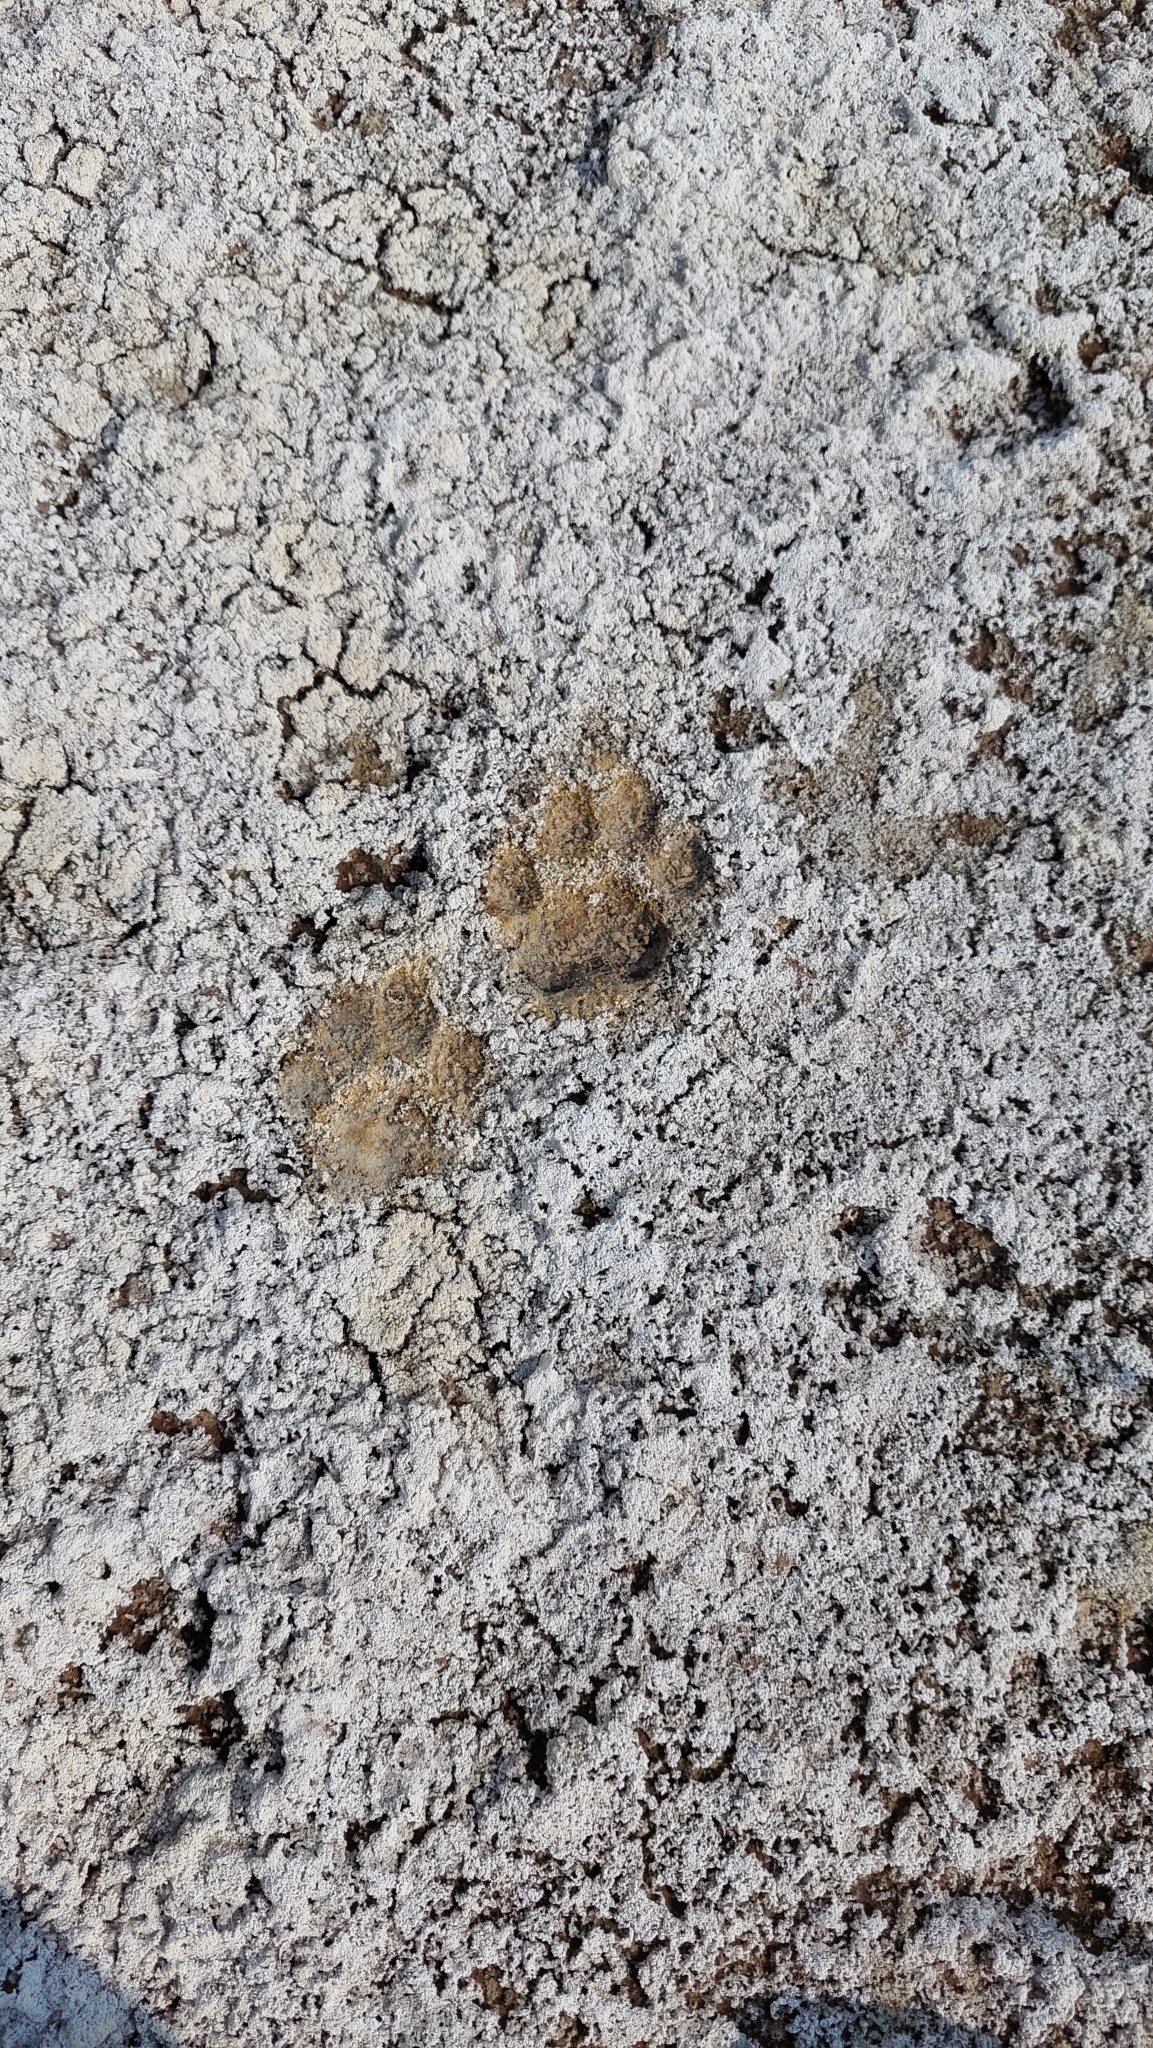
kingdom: Animalia
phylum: Chordata
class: Mammalia
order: Carnivora
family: Felidae
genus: Leopardus
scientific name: Leopardus geoffroyi
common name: Geoffroy's cat
